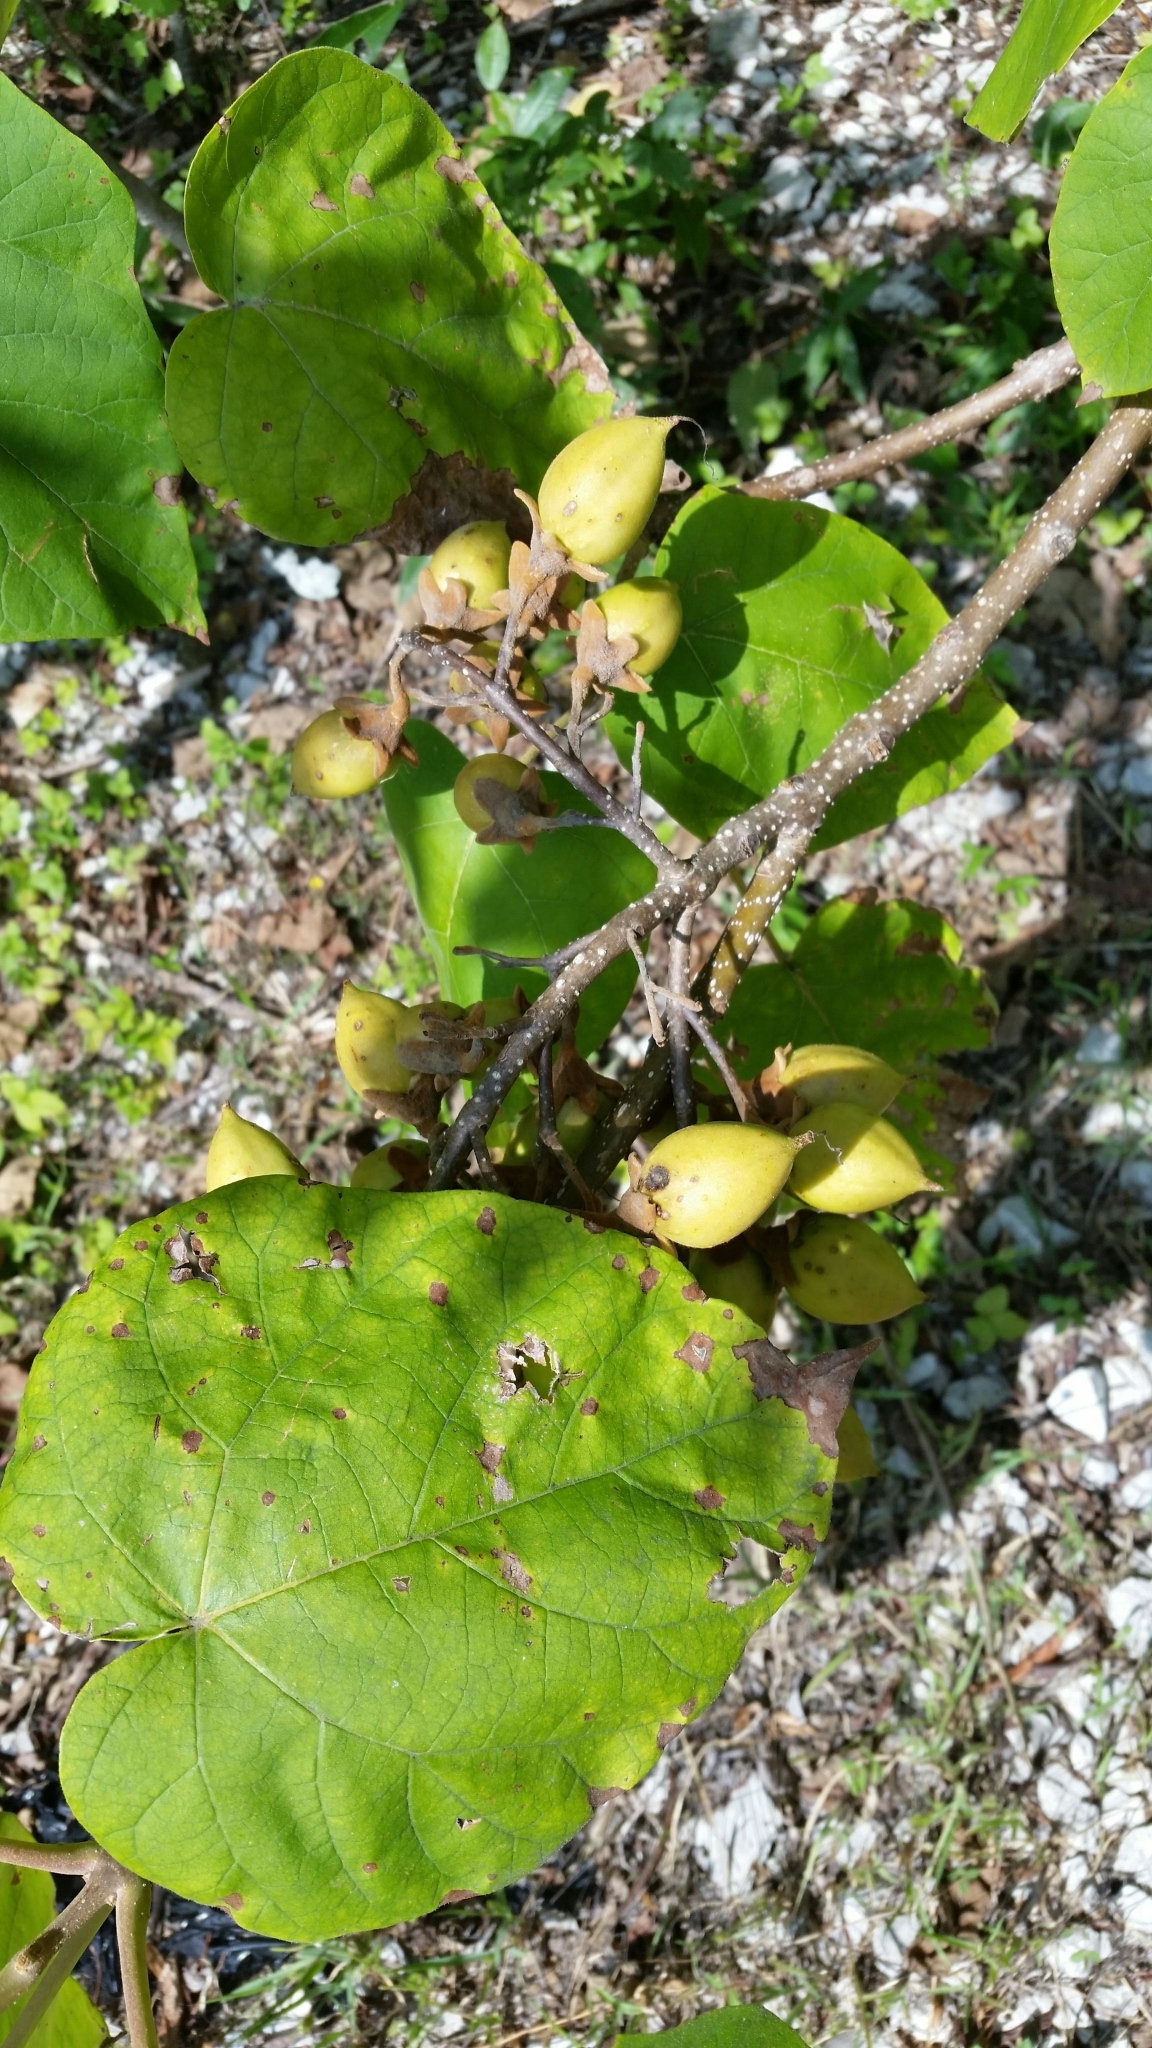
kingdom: Plantae
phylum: Tracheophyta
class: Magnoliopsida
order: Lamiales
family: Paulowniaceae
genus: Paulownia
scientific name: Paulownia tomentosa
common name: Foxglove-tree
